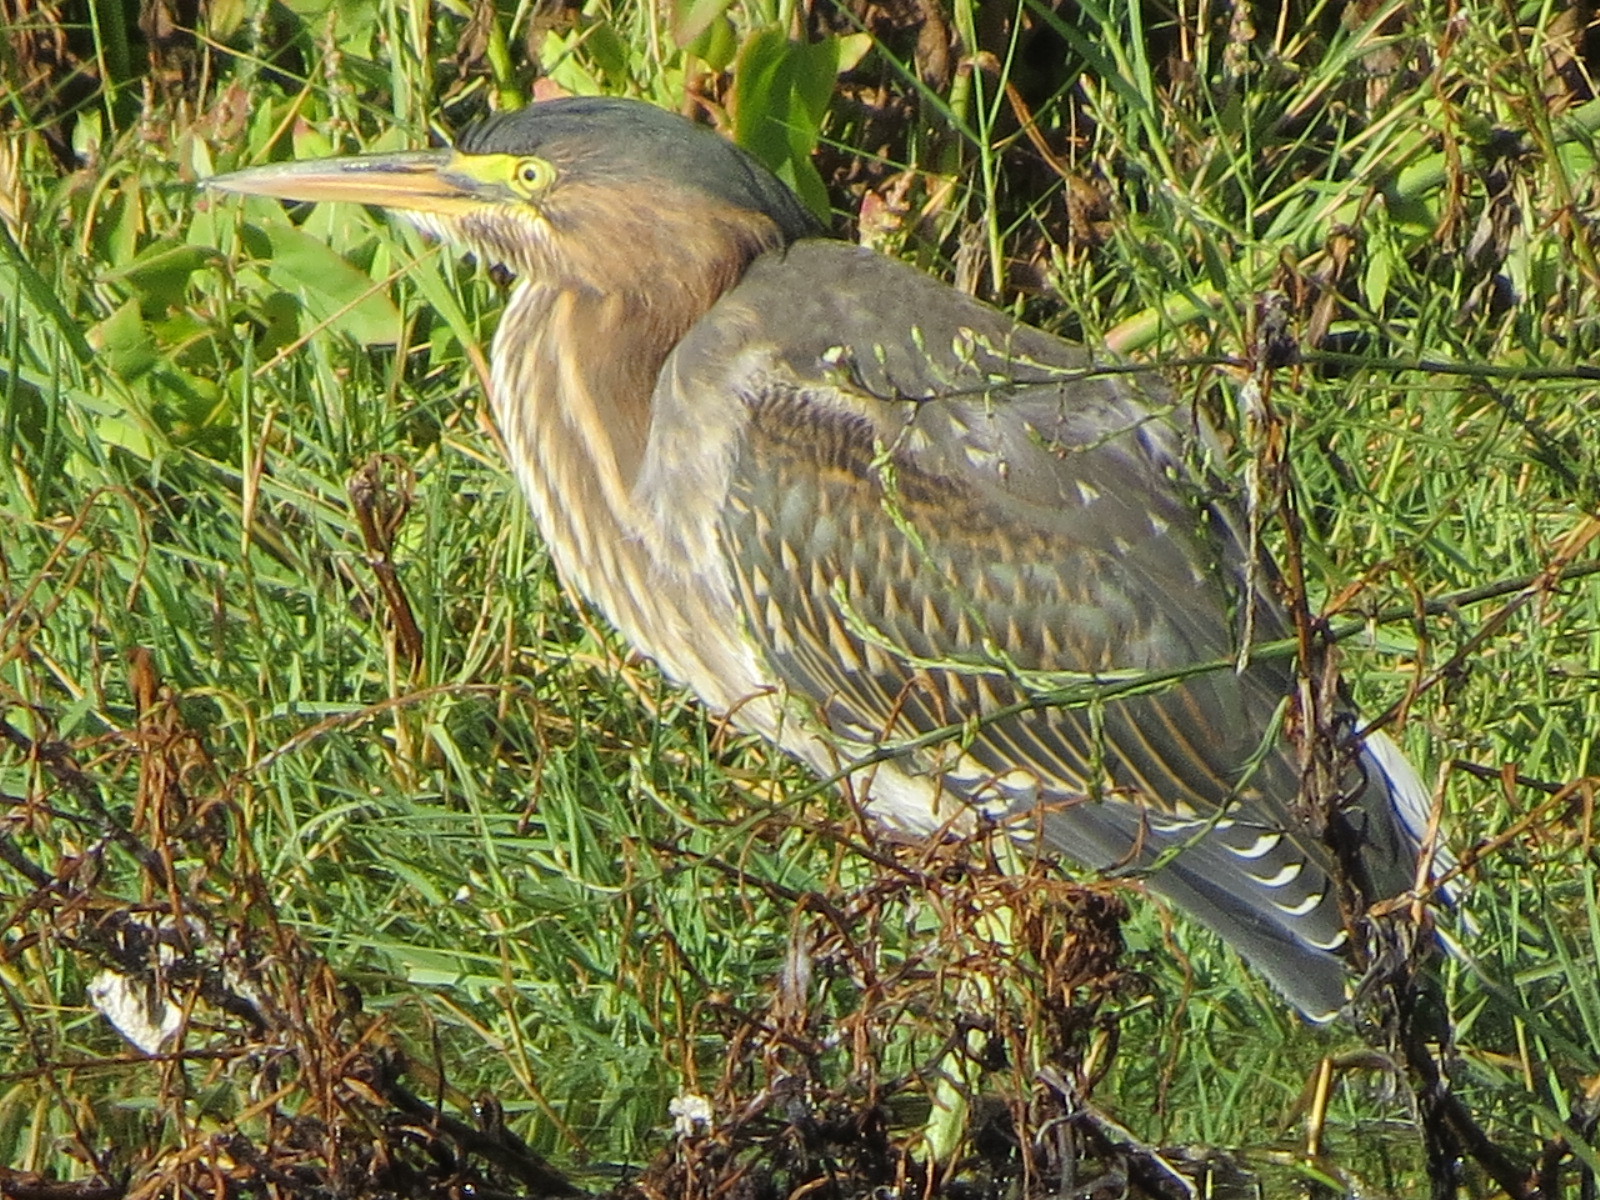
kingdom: Animalia
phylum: Chordata
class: Aves
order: Pelecaniformes
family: Ardeidae
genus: Butorides
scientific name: Butorides virescens
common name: Green heron
